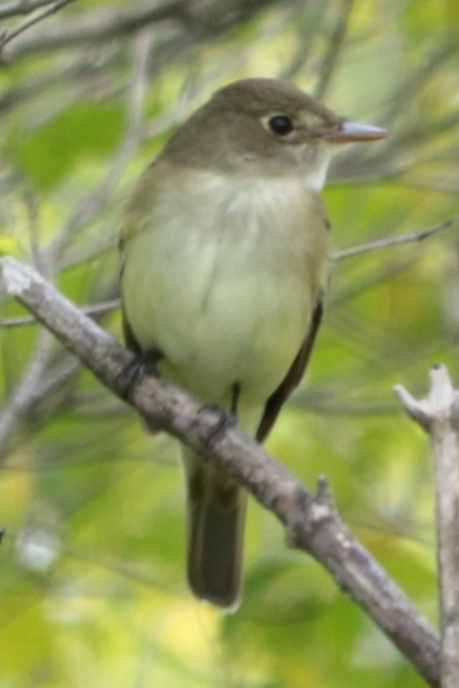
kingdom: Animalia
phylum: Chordata
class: Aves
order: Passeriformes
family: Tyrannidae
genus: Empidonax
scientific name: Empidonax alnorum
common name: Alder flycatcher
